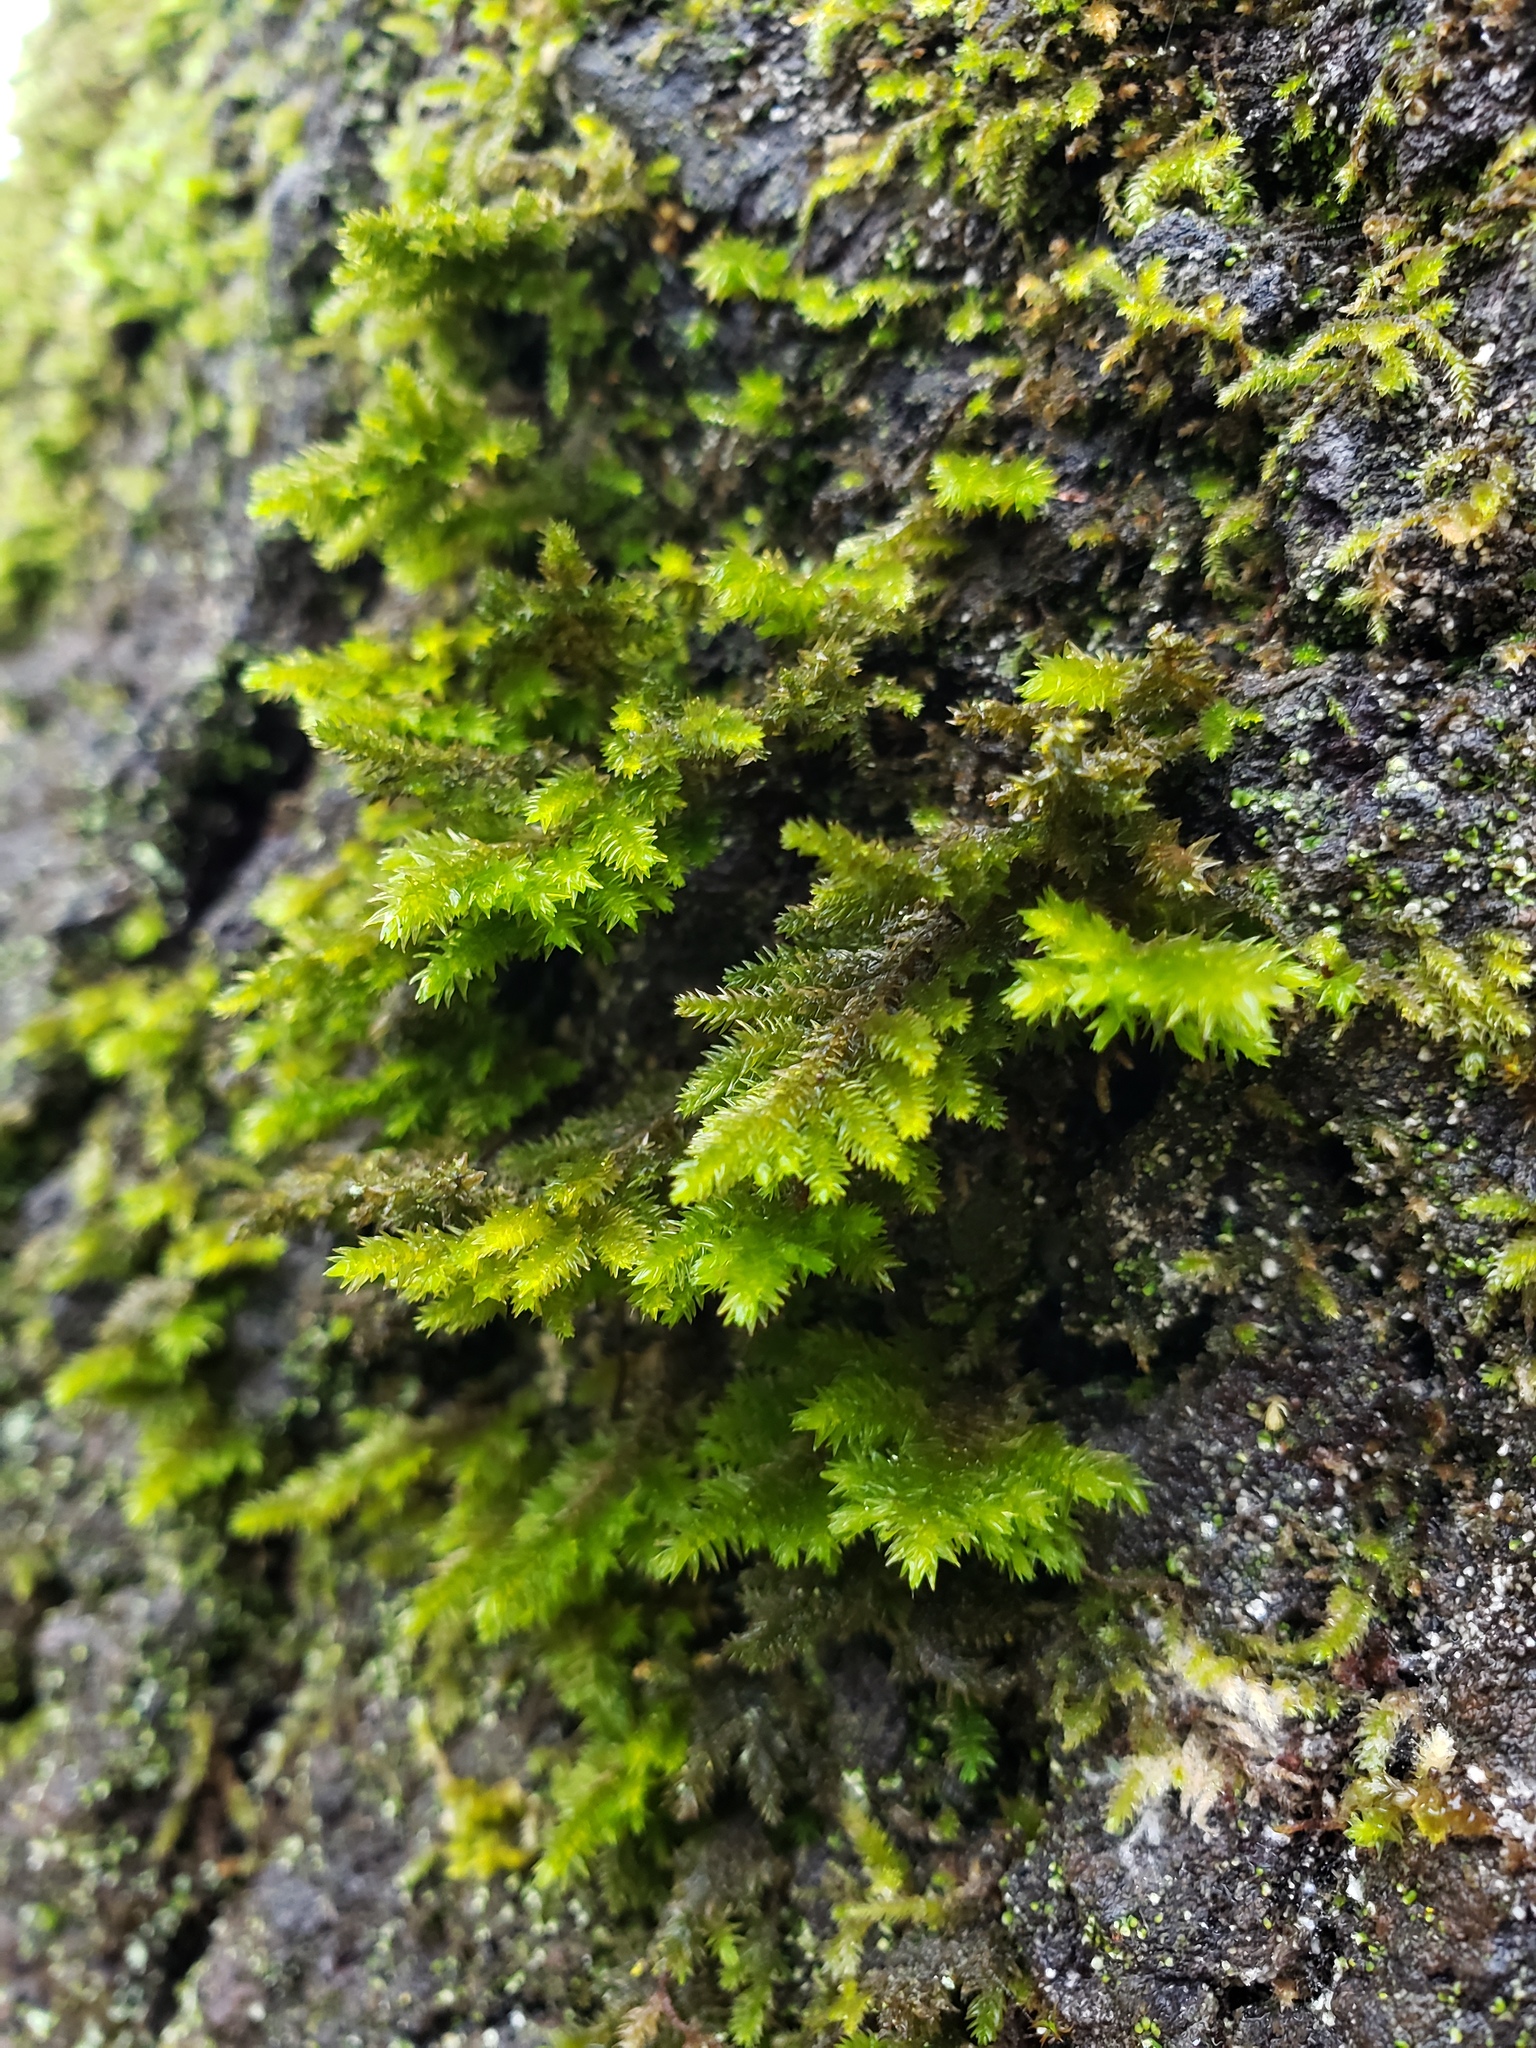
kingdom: Plantae
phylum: Bryophyta
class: Bryopsida
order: Hypnales
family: Cryphaeaceae
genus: Dendroalsia
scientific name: Dendroalsia abietina
